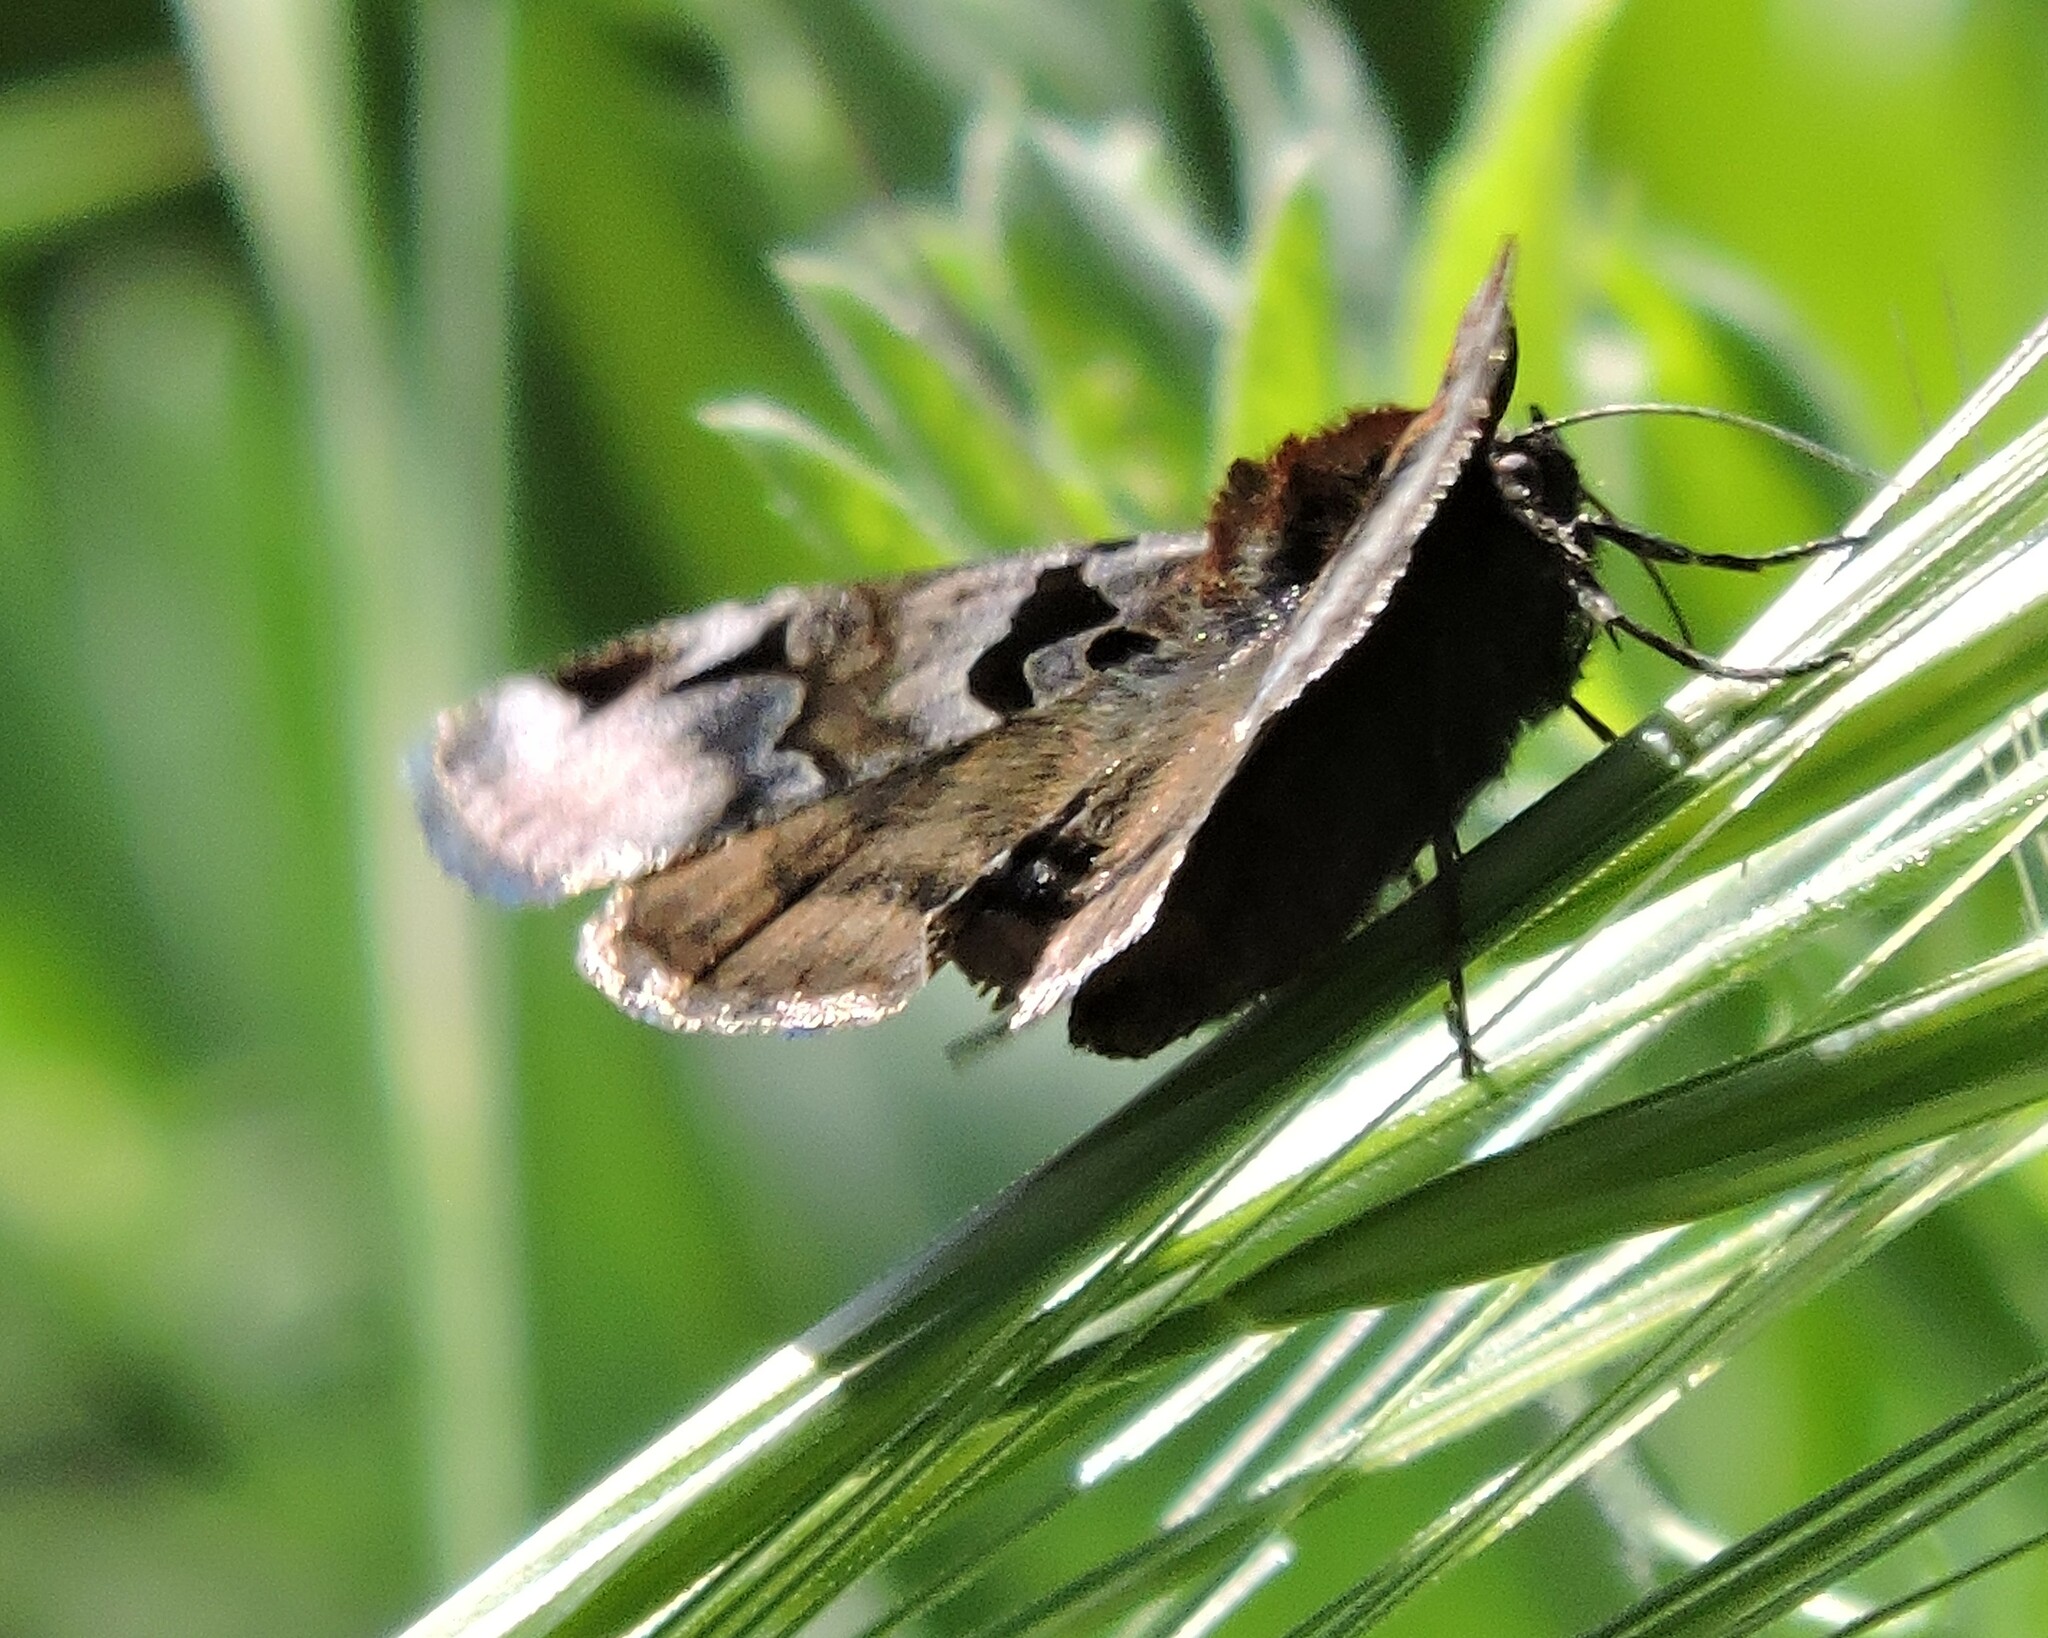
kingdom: Animalia
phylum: Arthropoda
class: Insecta
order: Lepidoptera
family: Erebidae
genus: Euclidia
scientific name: Euclidia ardita
